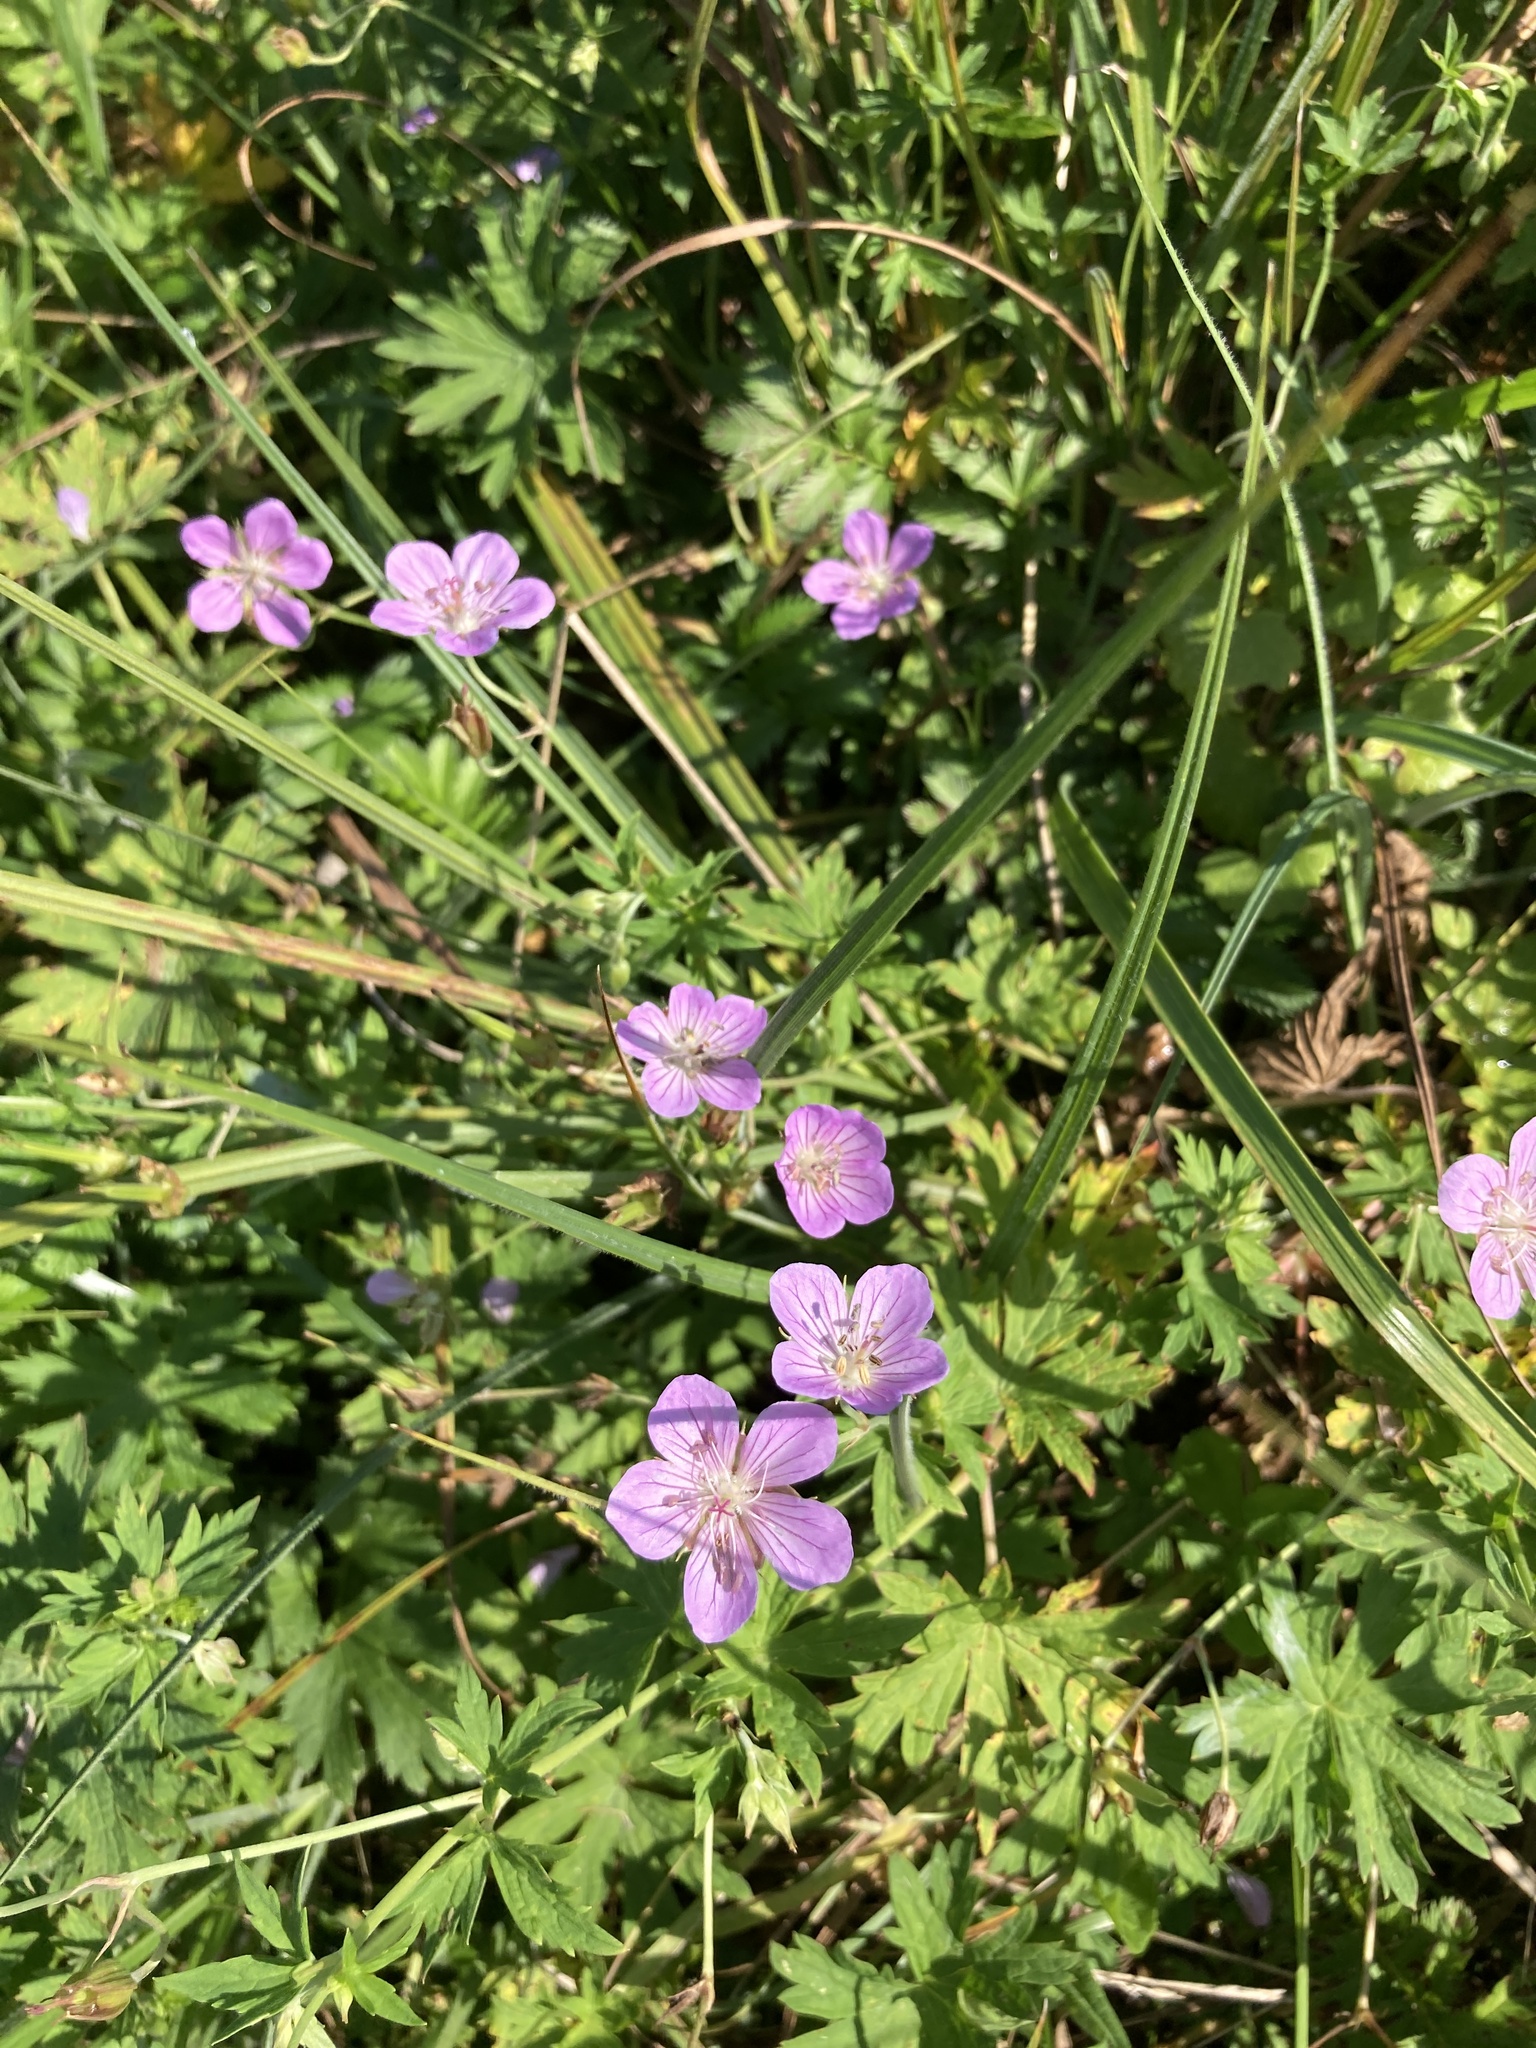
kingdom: Plantae
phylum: Tracheophyta
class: Magnoliopsida
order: Geraniales
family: Geraniaceae
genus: Geranium
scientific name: Geranium collinum
